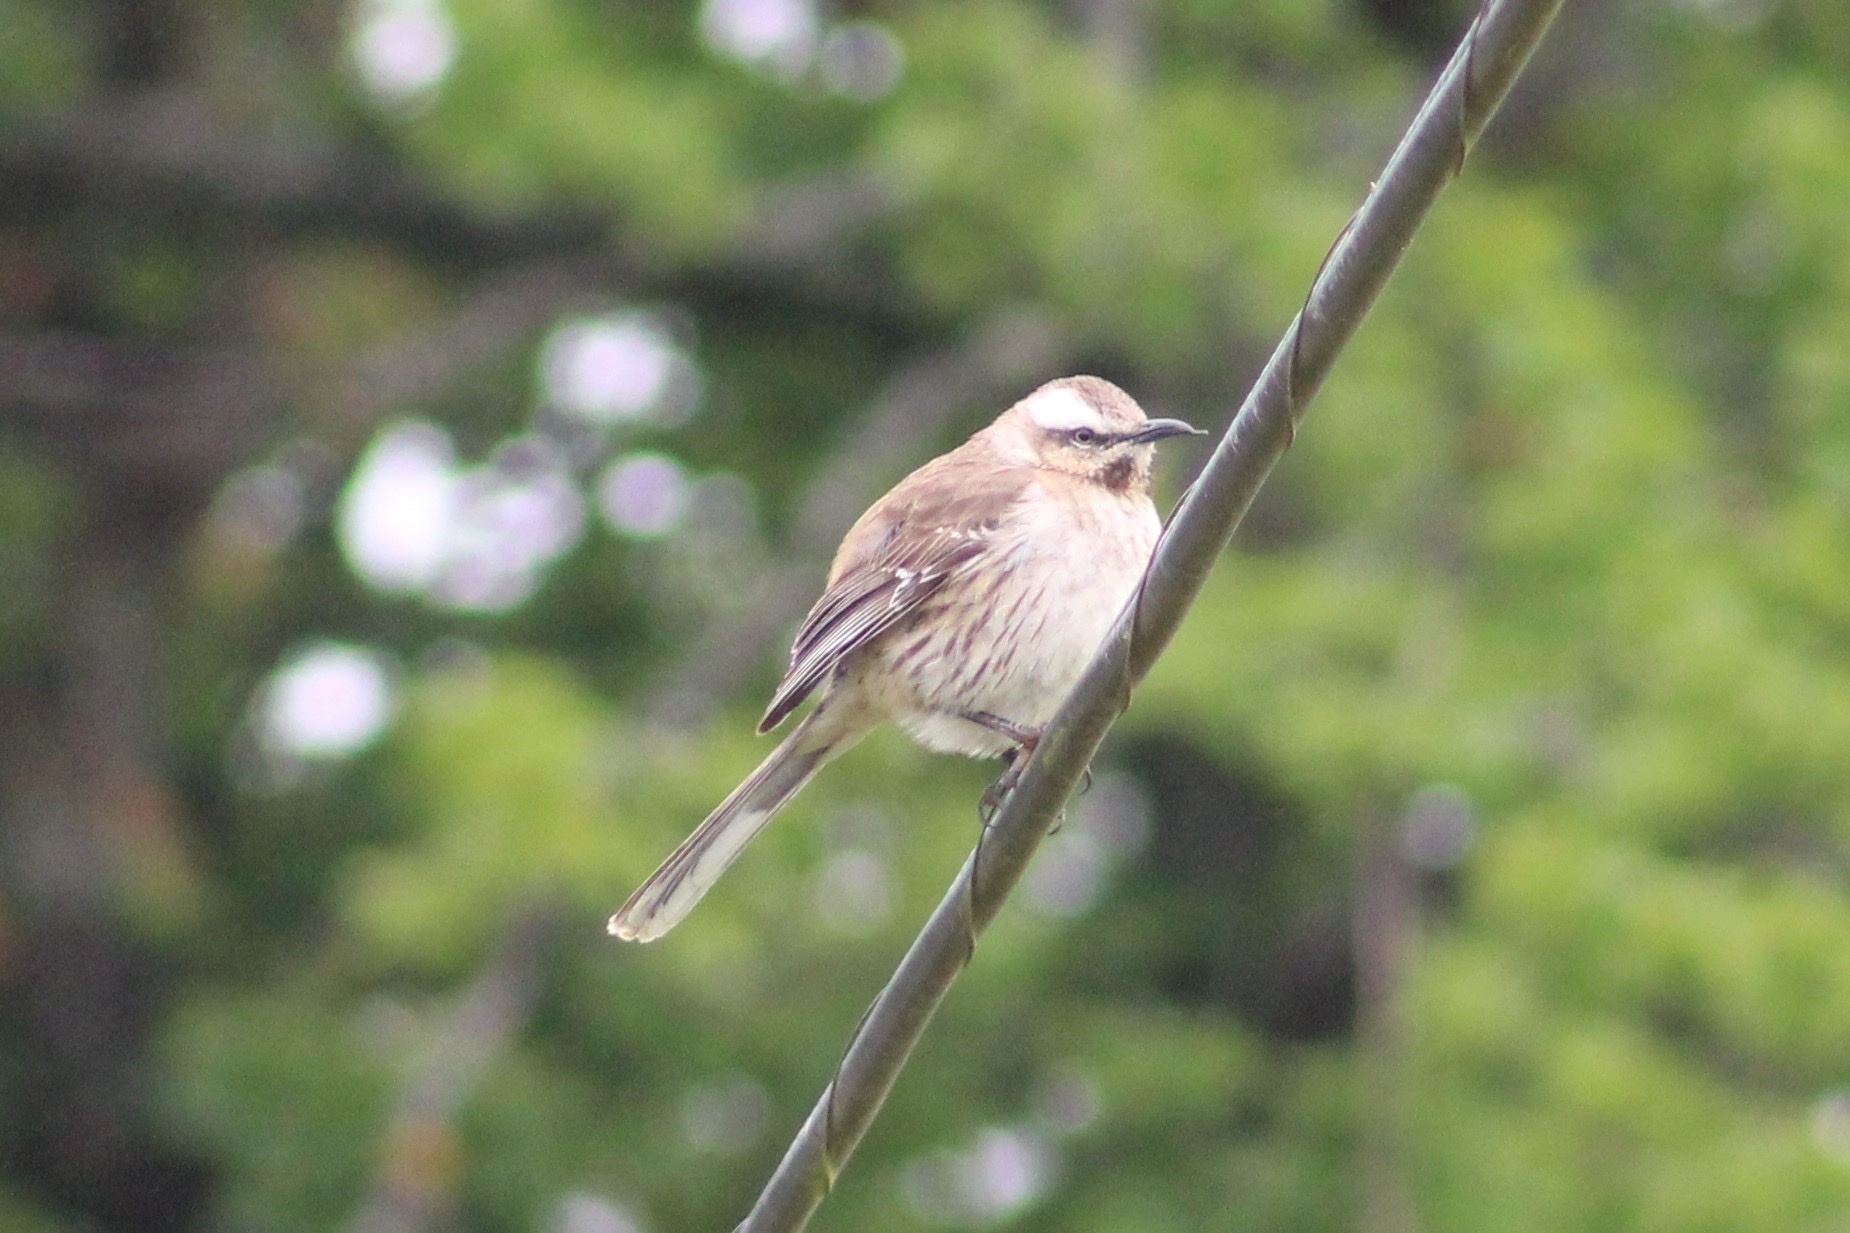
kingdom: Animalia
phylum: Chordata
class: Aves
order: Passeriformes
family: Mimidae
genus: Mimus
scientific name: Mimus thenca
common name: Chilean mockingbird
